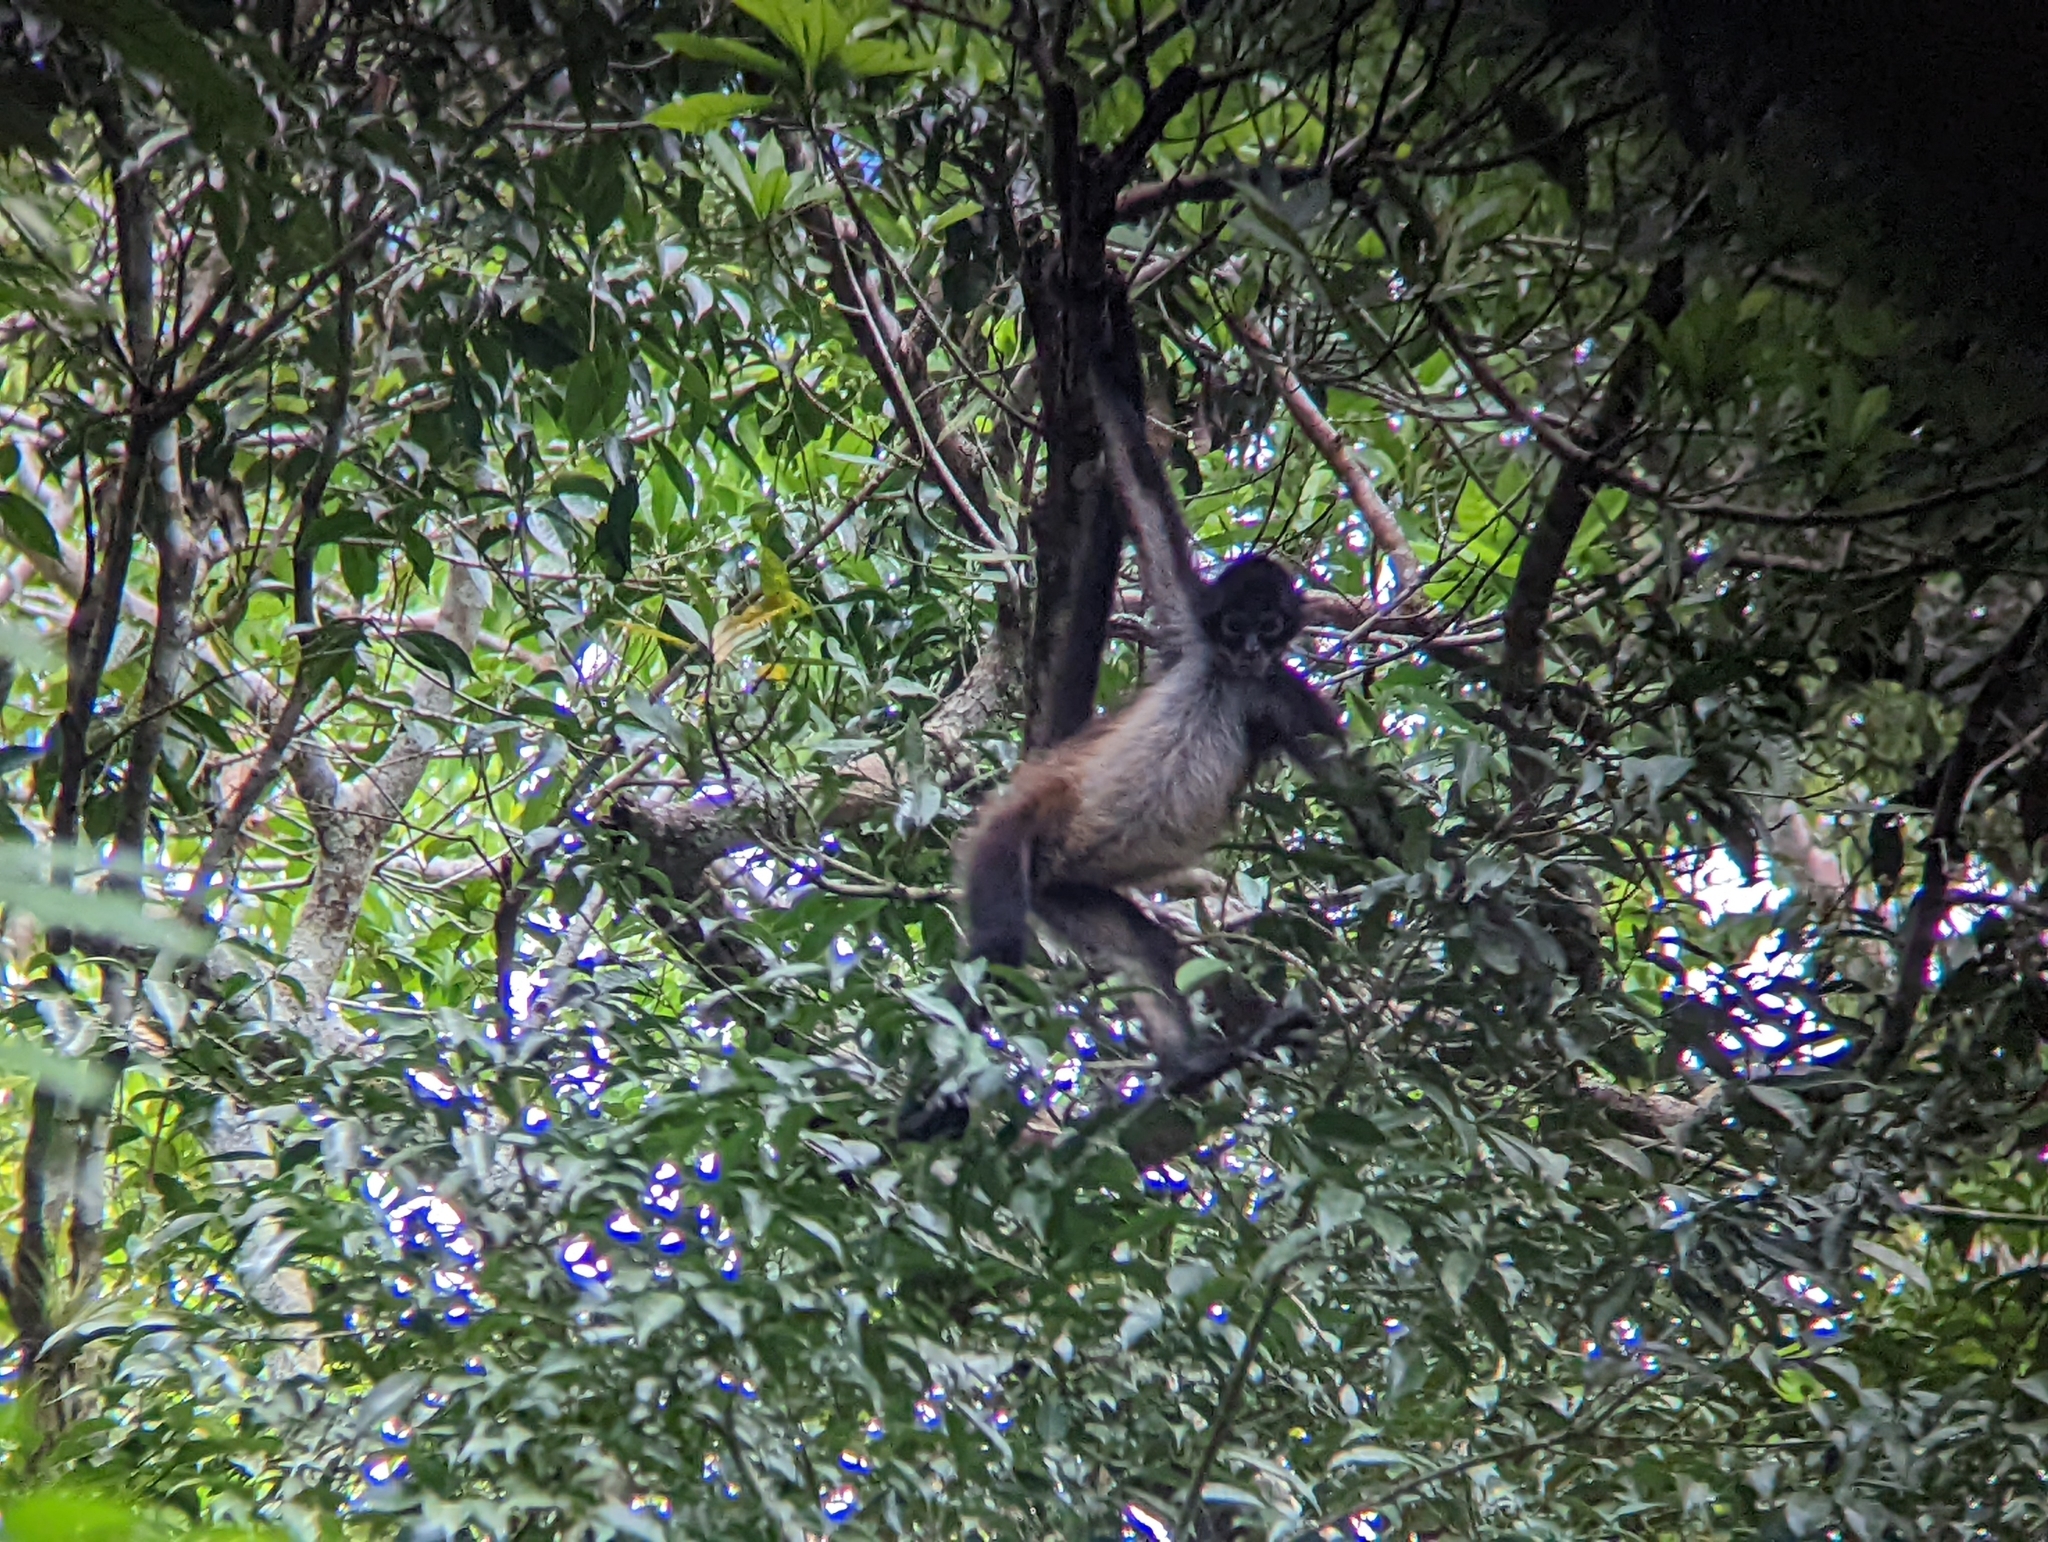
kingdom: Animalia
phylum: Chordata
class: Mammalia
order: Primates
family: Atelidae
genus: Ateles
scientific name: Ateles geoffroyi
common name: Black-handed spider monkey
